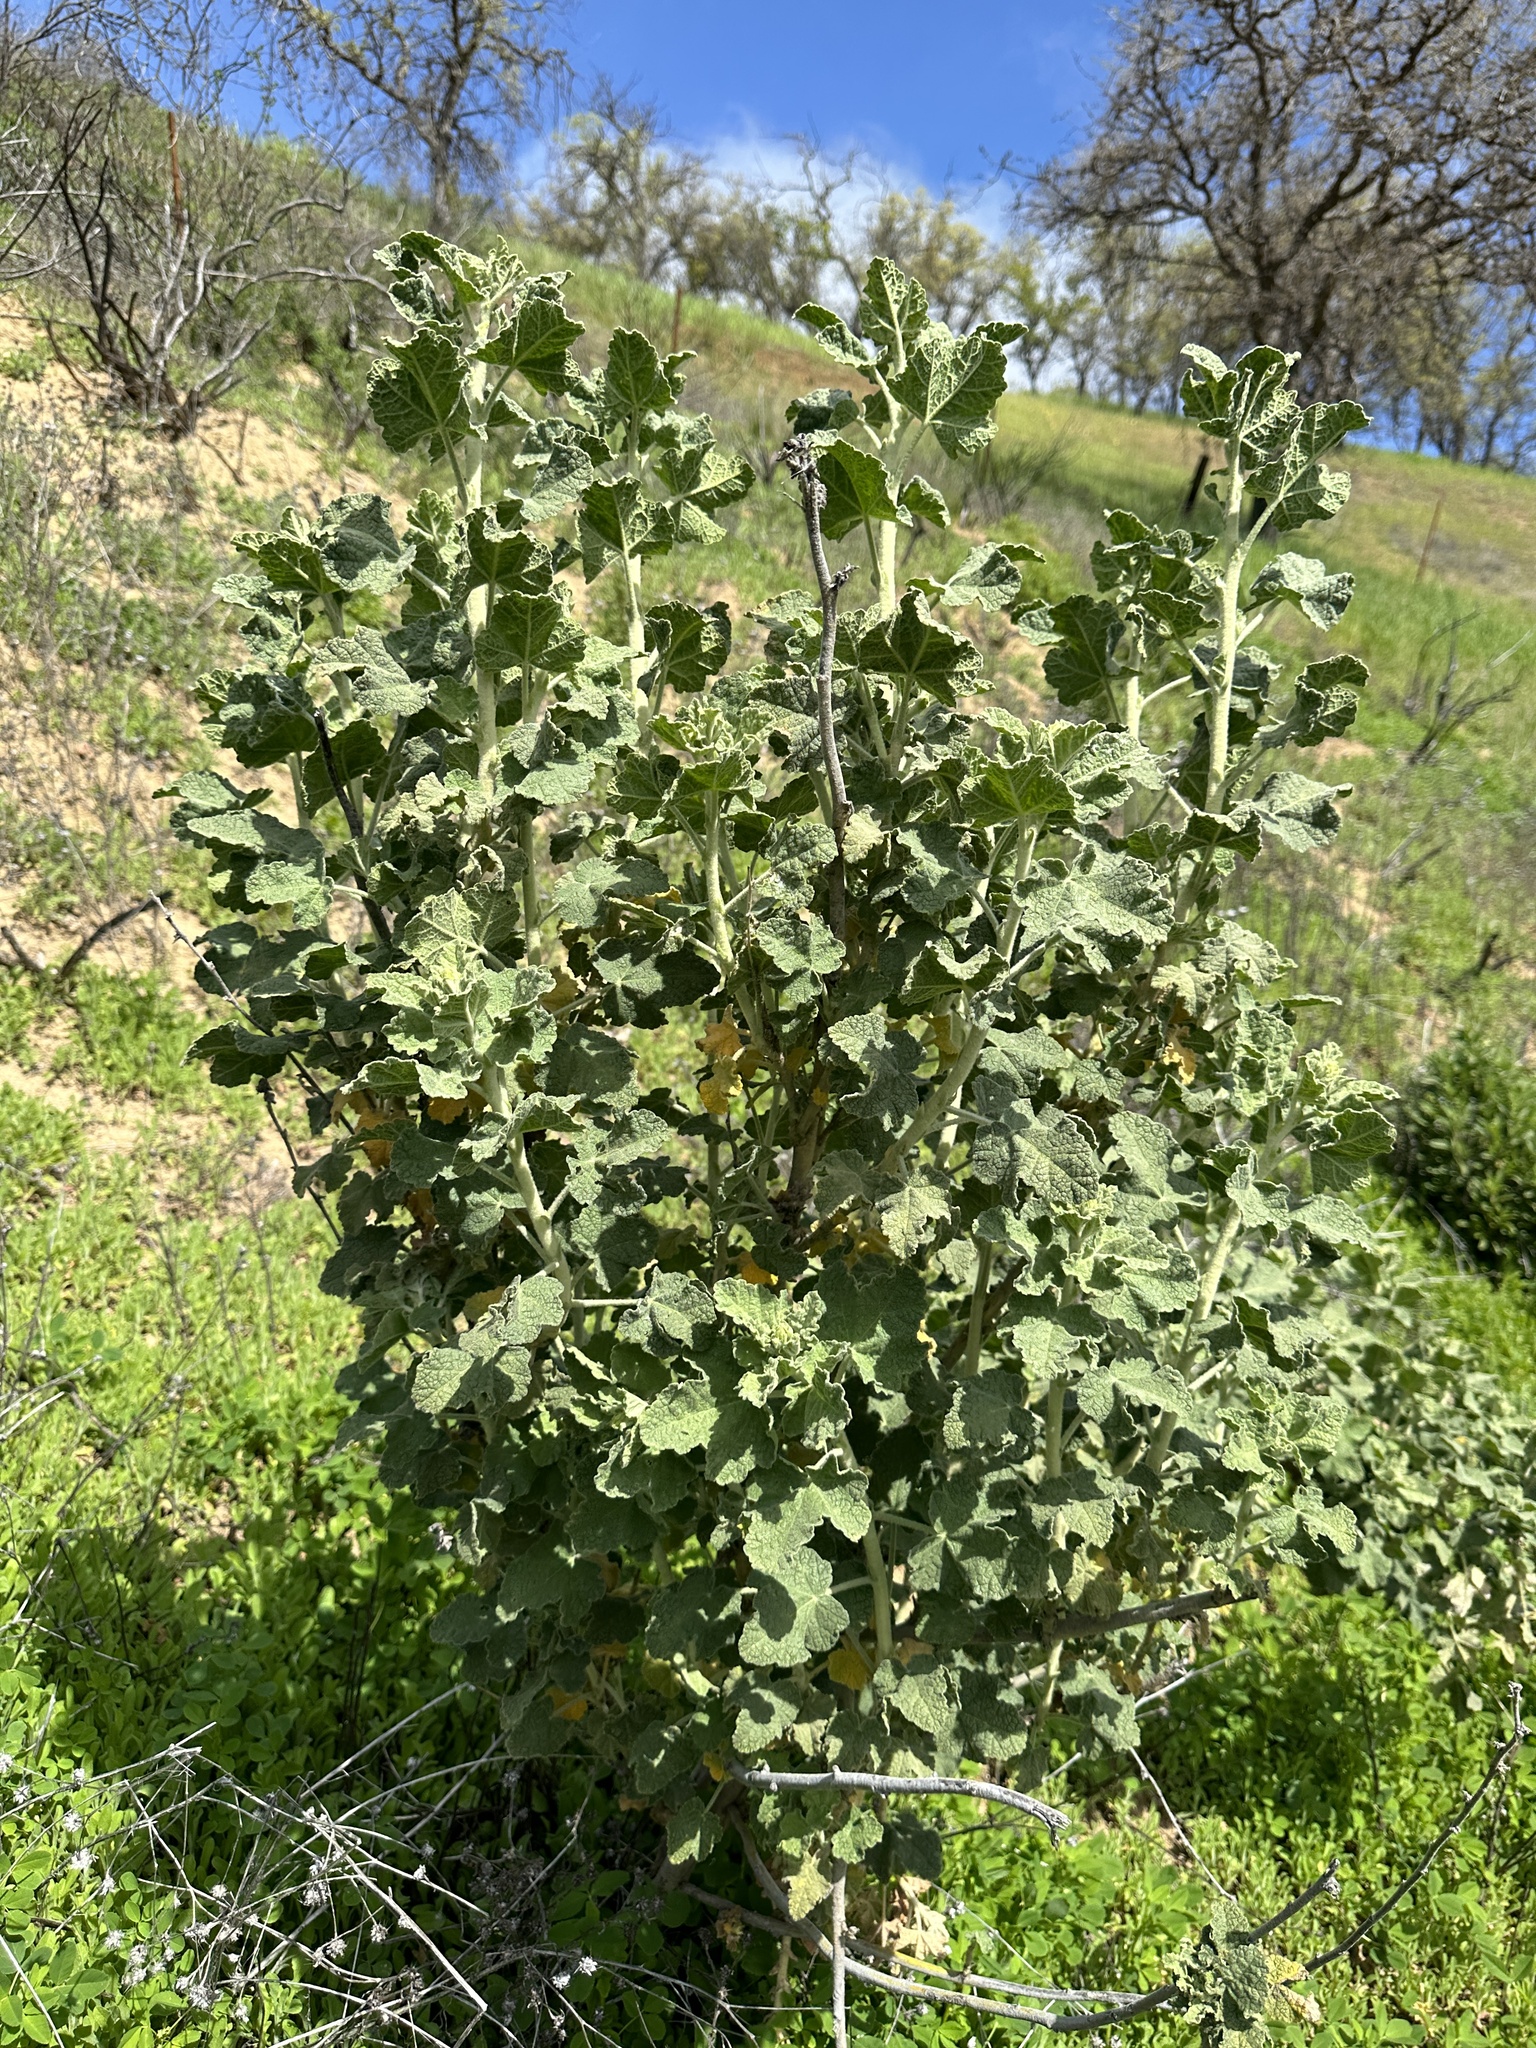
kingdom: Plantae
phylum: Tracheophyta
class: Magnoliopsida
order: Malvales
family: Malvaceae
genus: Malacothamnus
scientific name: Malacothamnus aboriginum
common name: Indian valley bush-mallow
